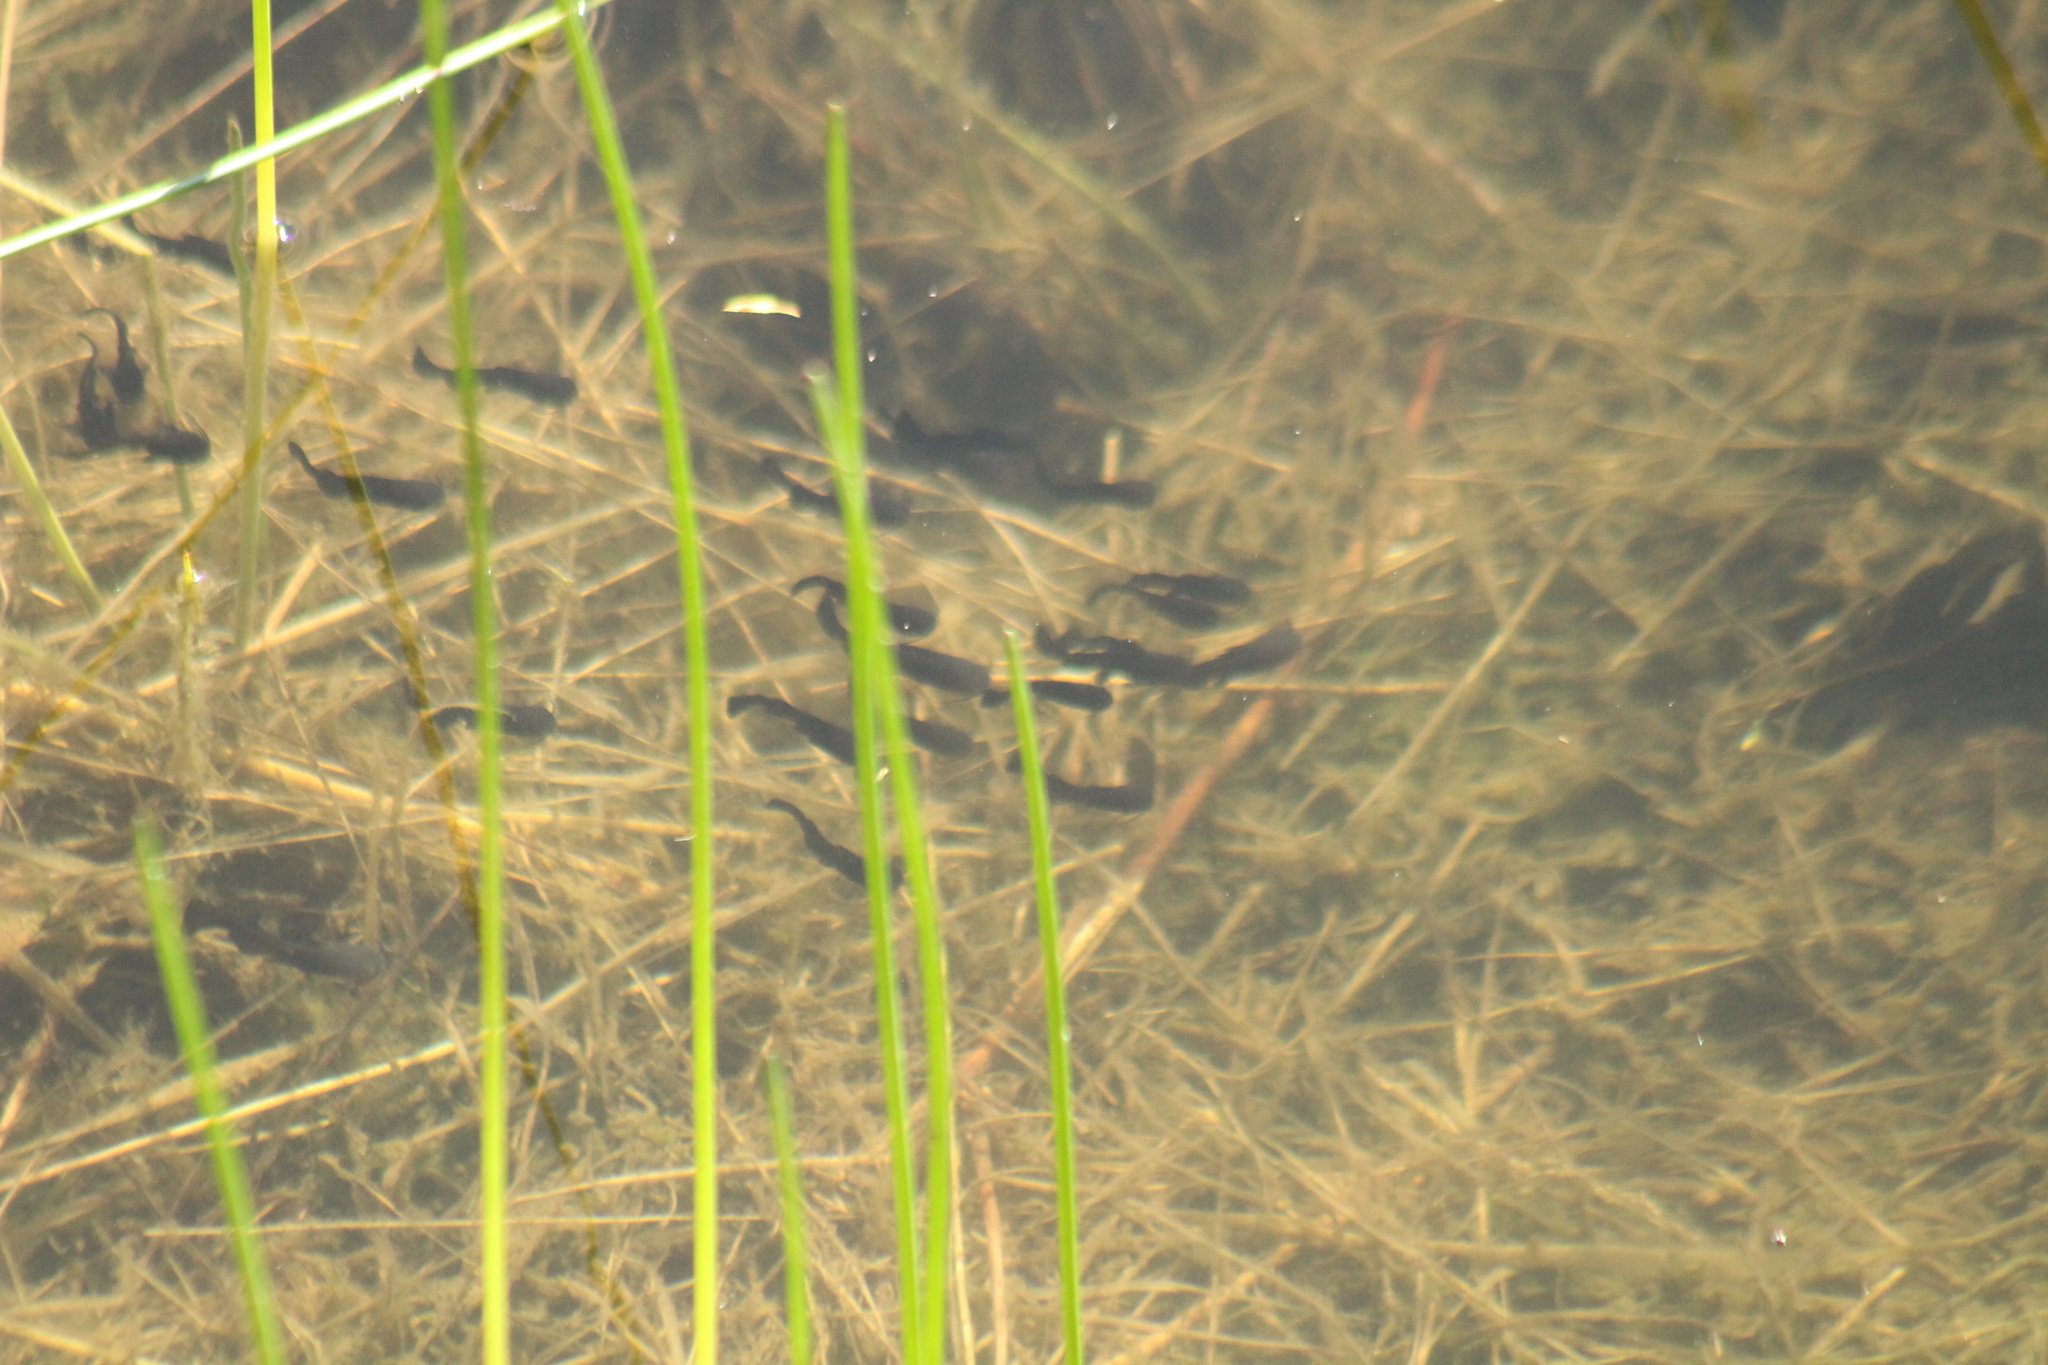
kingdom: Animalia
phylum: Chordata
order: Siluriformes
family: Ictaluridae
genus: Ameiurus
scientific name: Ameiurus melas
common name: Black bullhead
